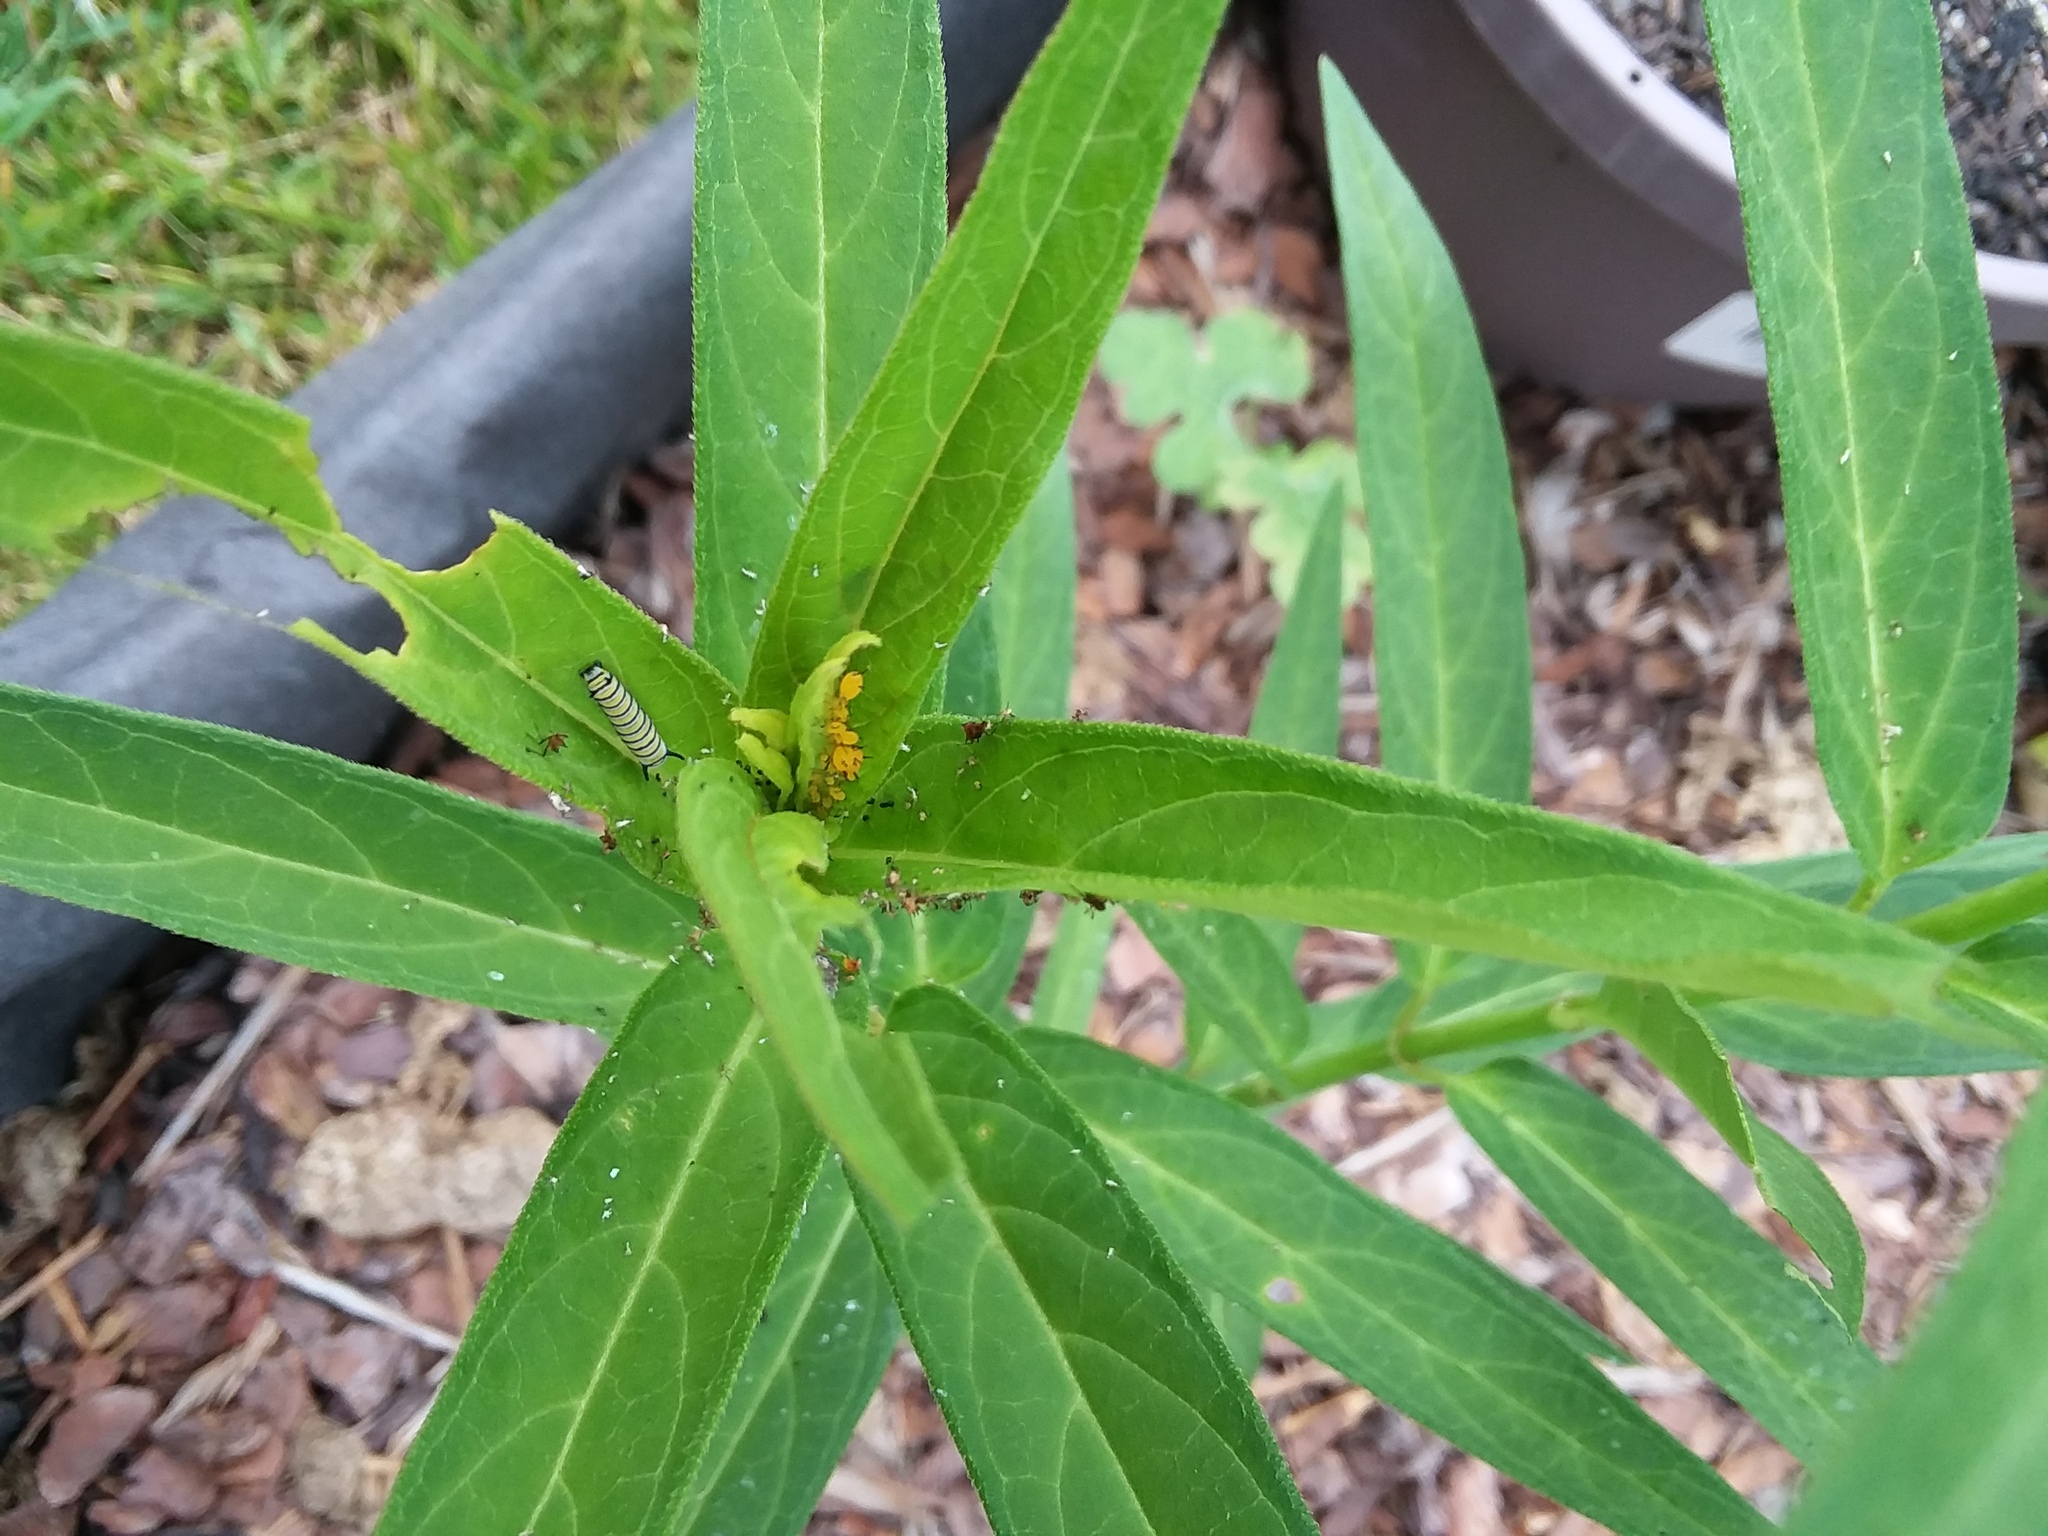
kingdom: Animalia
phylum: Arthropoda
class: Insecta
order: Lepidoptera
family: Nymphalidae
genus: Danaus
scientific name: Danaus plexippus
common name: Monarch
